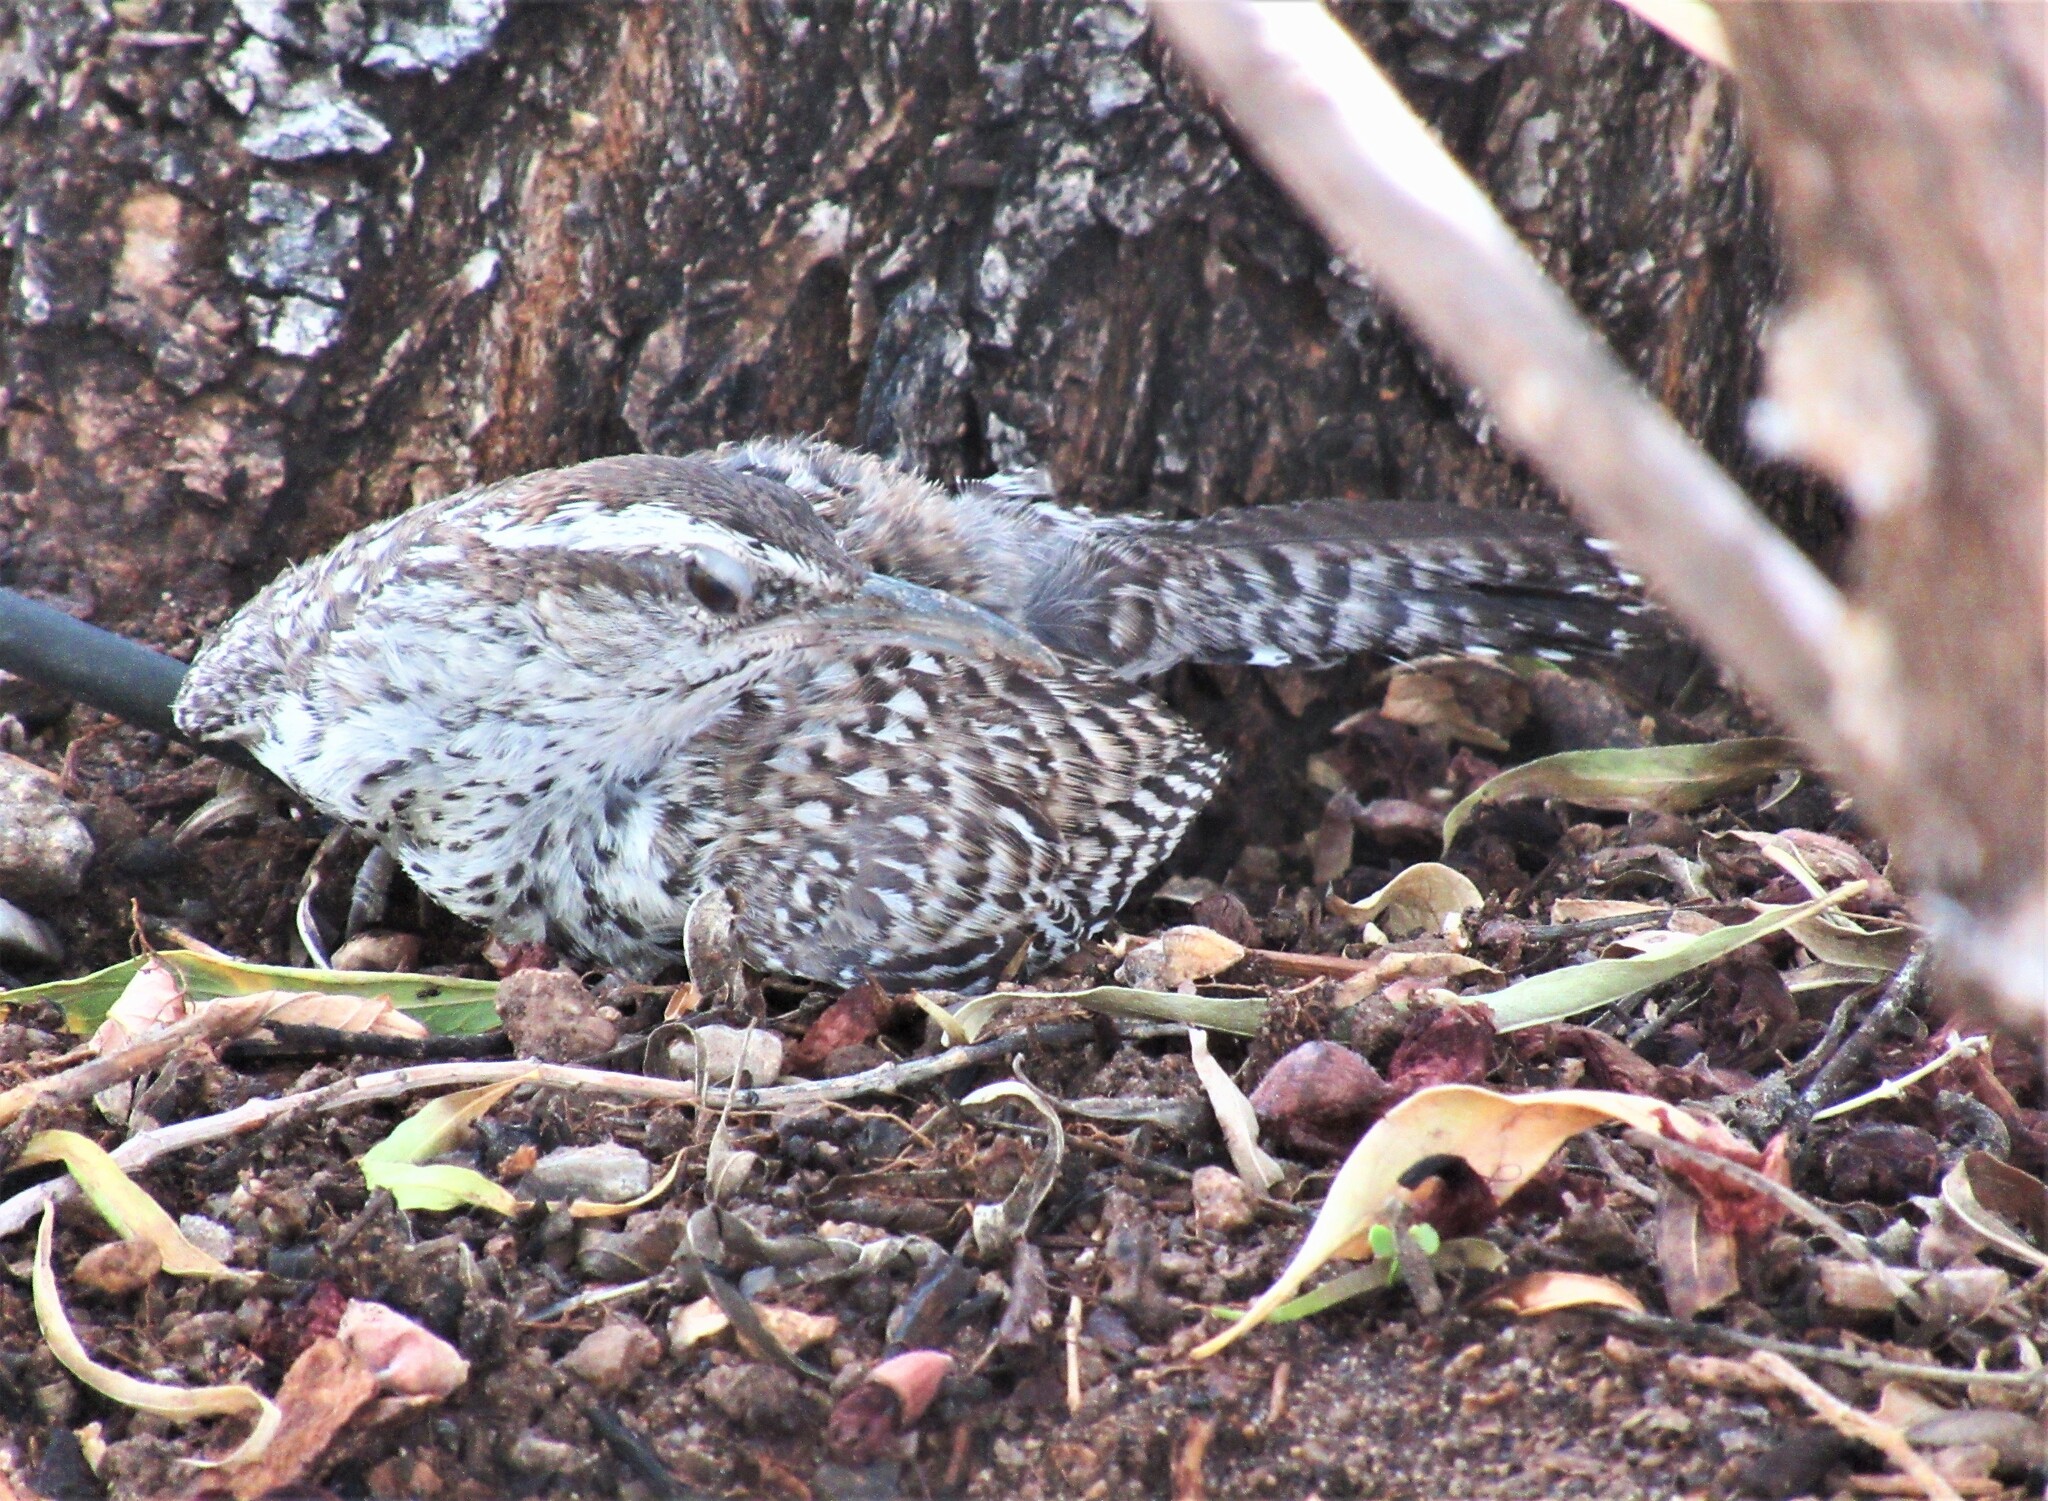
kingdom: Animalia
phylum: Chordata
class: Aves
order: Passeriformes
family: Troglodytidae
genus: Campylorhynchus
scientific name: Campylorhynchus brunneicapillus
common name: Cactus wren
